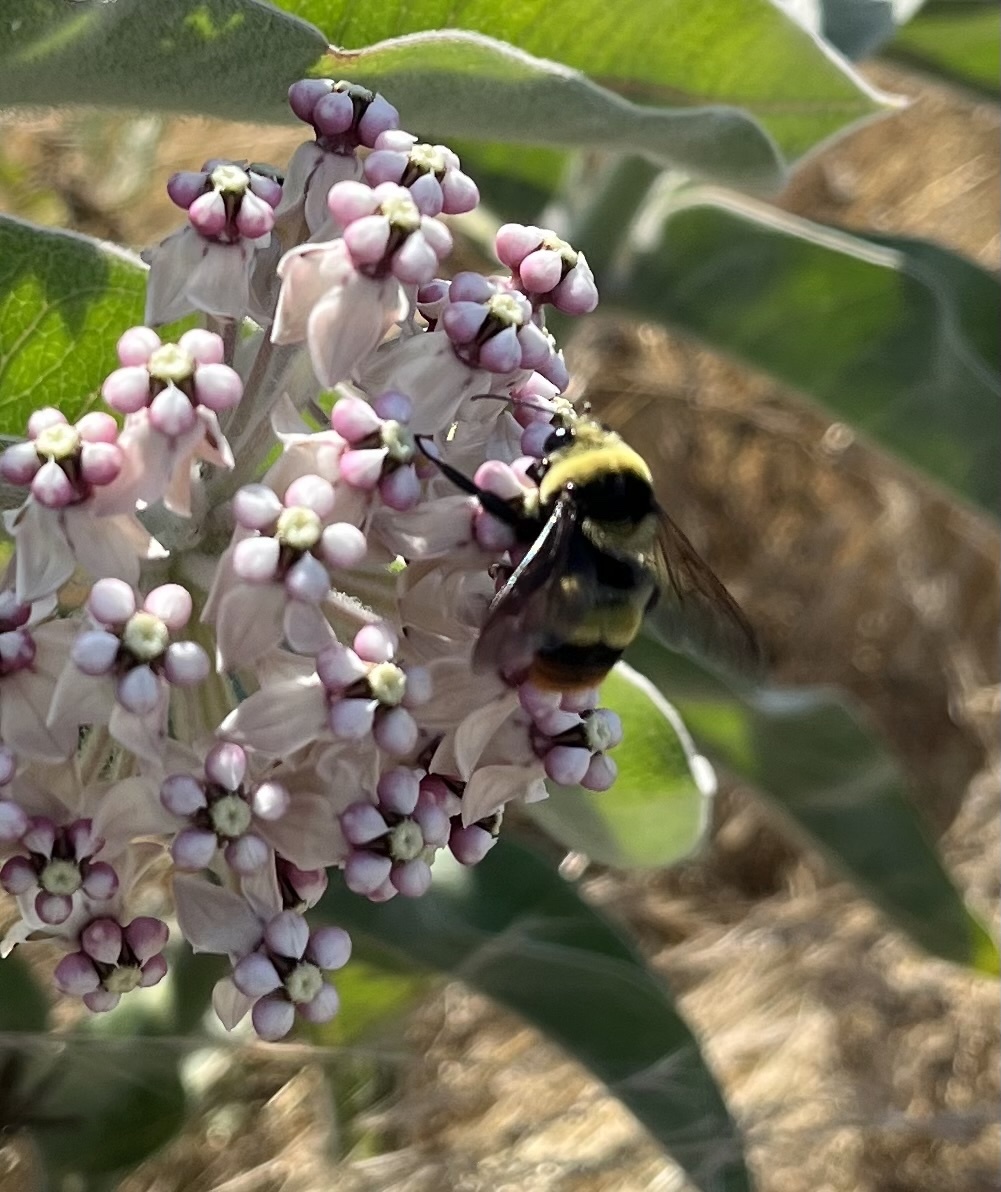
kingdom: Animalia
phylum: Arthropoda
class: Insecta
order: Hymenoptera
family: Apidae
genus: Bombus
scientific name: Bombus crotchii
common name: Crotch bumble bee
